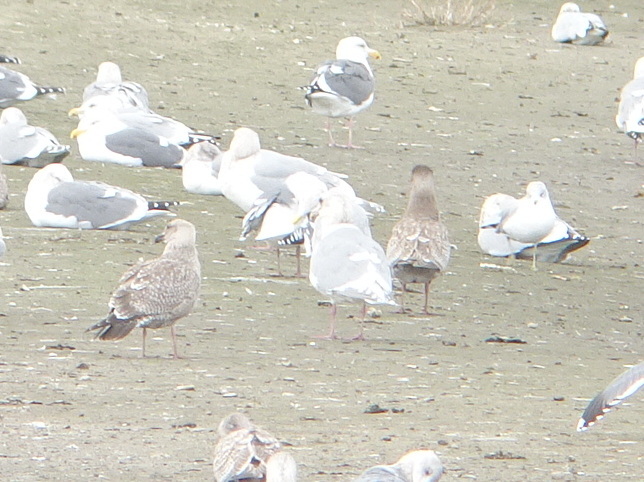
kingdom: Animalia
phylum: Chordata
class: Aves
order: Charadriiformes
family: Laridae
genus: Larus
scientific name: Larus glaucescens
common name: Glaucous-winged gull
